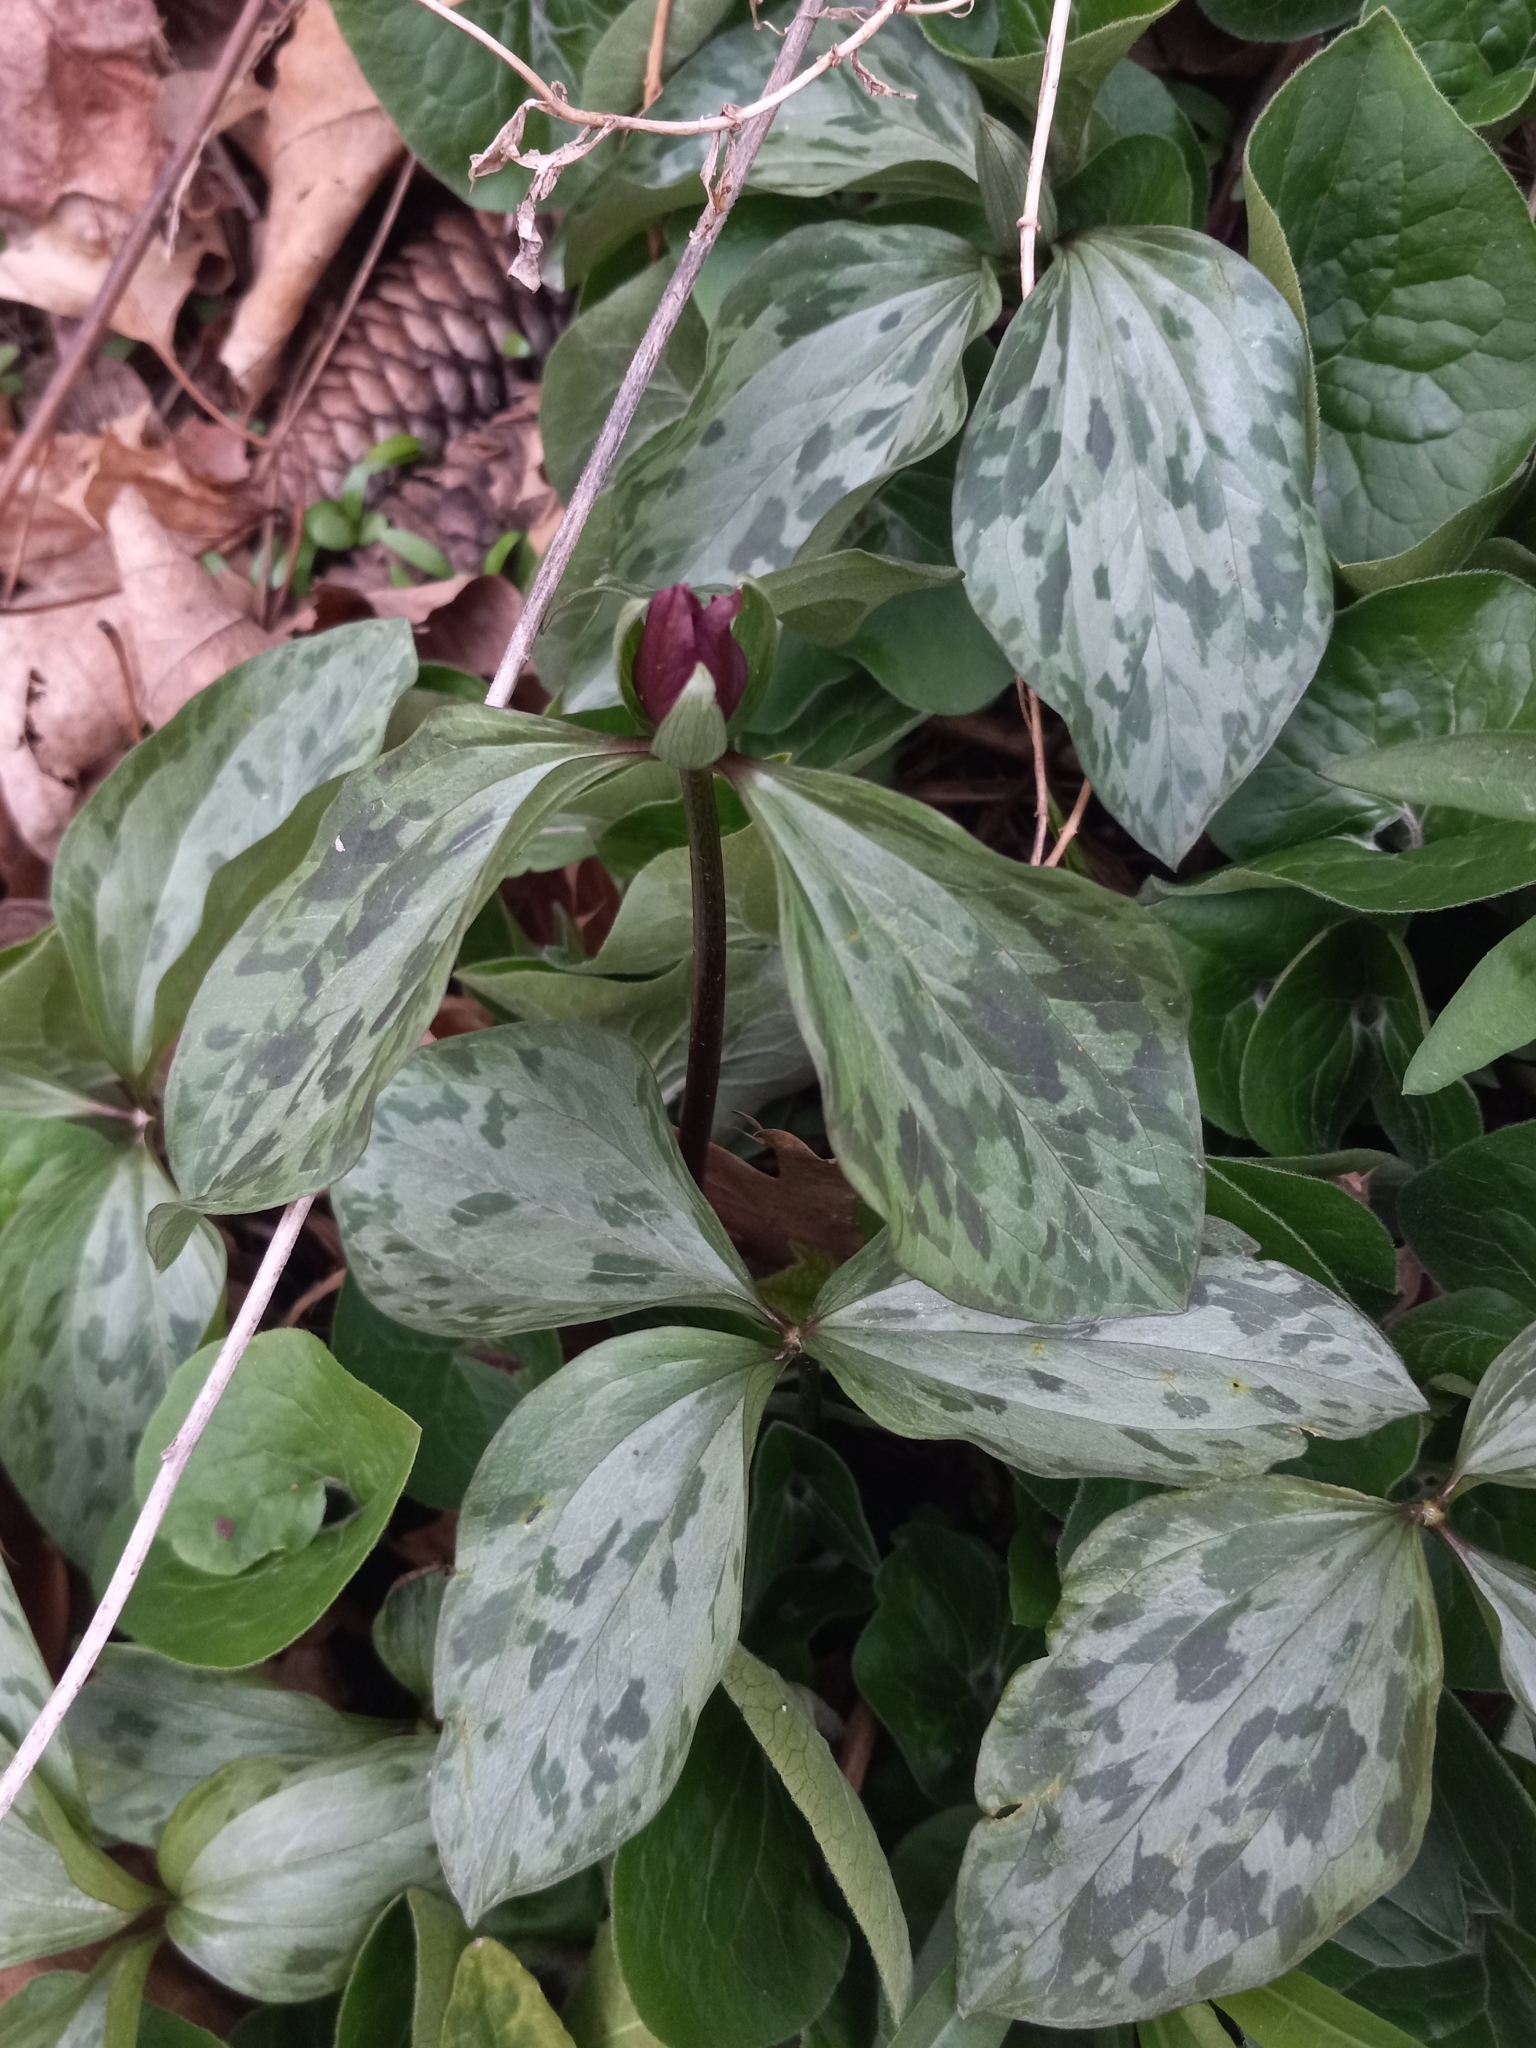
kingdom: Plantae
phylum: Tracheophyta
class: Liliopsida
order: Liliales
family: Melanthiaceae
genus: Trillium
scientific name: Trillium recurvatum
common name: Bloody butcher
